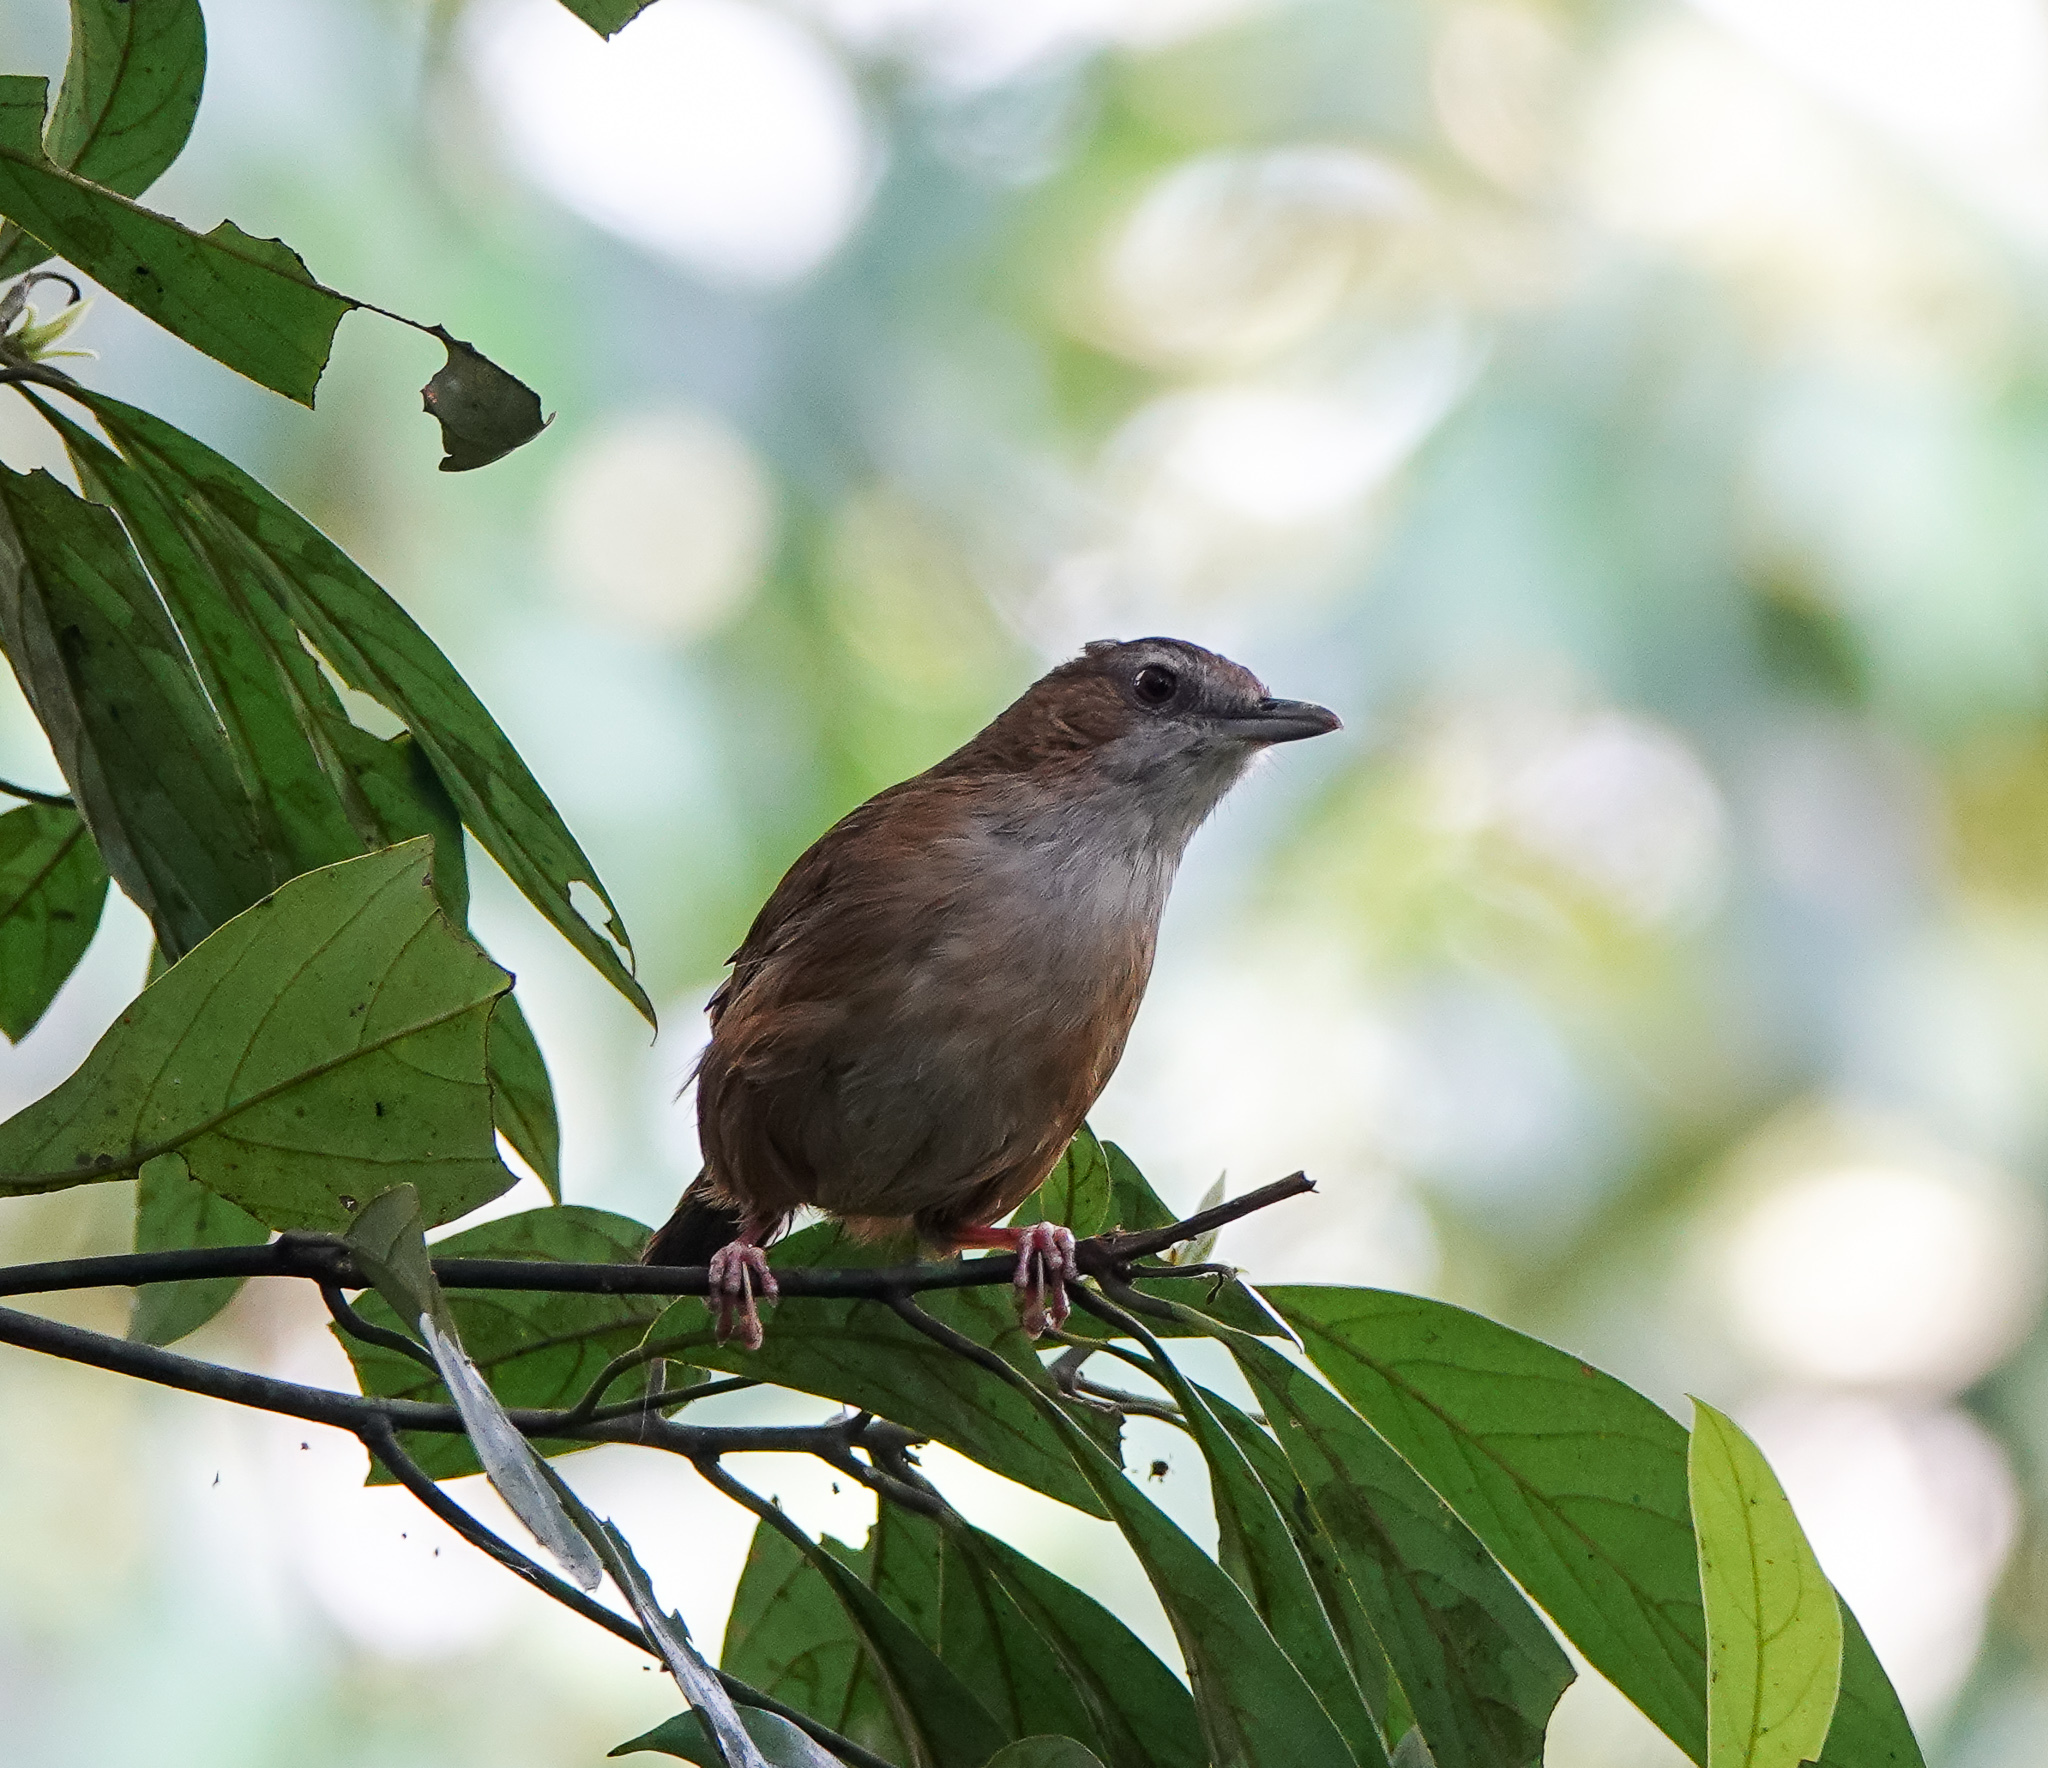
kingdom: Animalia
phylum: Chordata
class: Aves
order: Passeriformes
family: Pellorneidae
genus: Malacocincla
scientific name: Malacocincla abbotti
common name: Abbott's babbler
